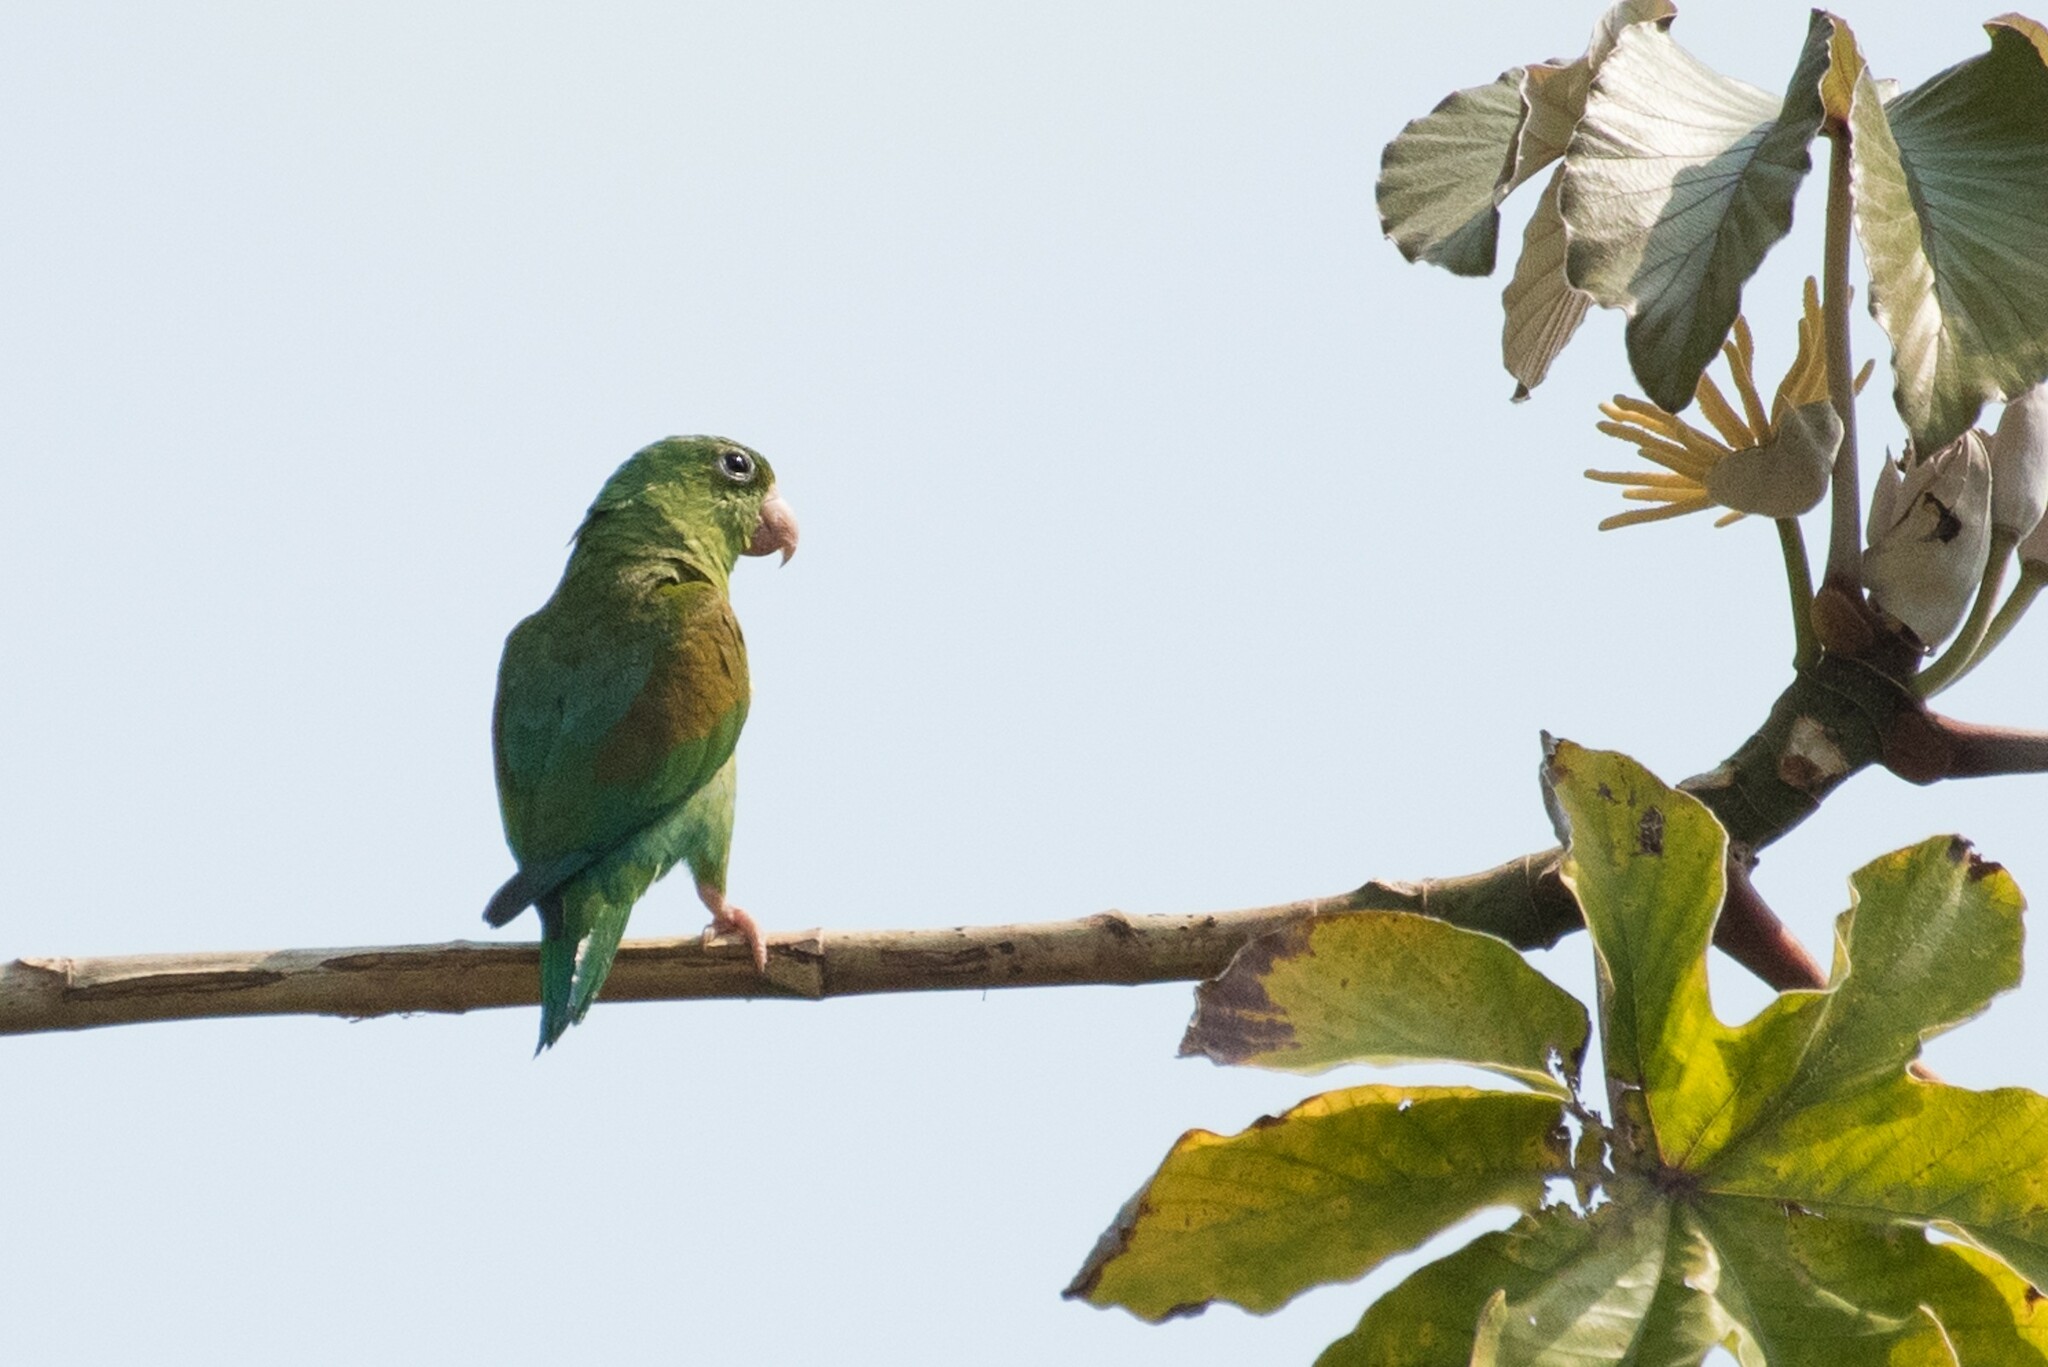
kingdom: Animalia
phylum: Chordata
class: Aves
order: Psittaciformes
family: Psittacidae
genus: Brotogeris
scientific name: Brotogeris jugularis
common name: Orange-chinned parakeet
